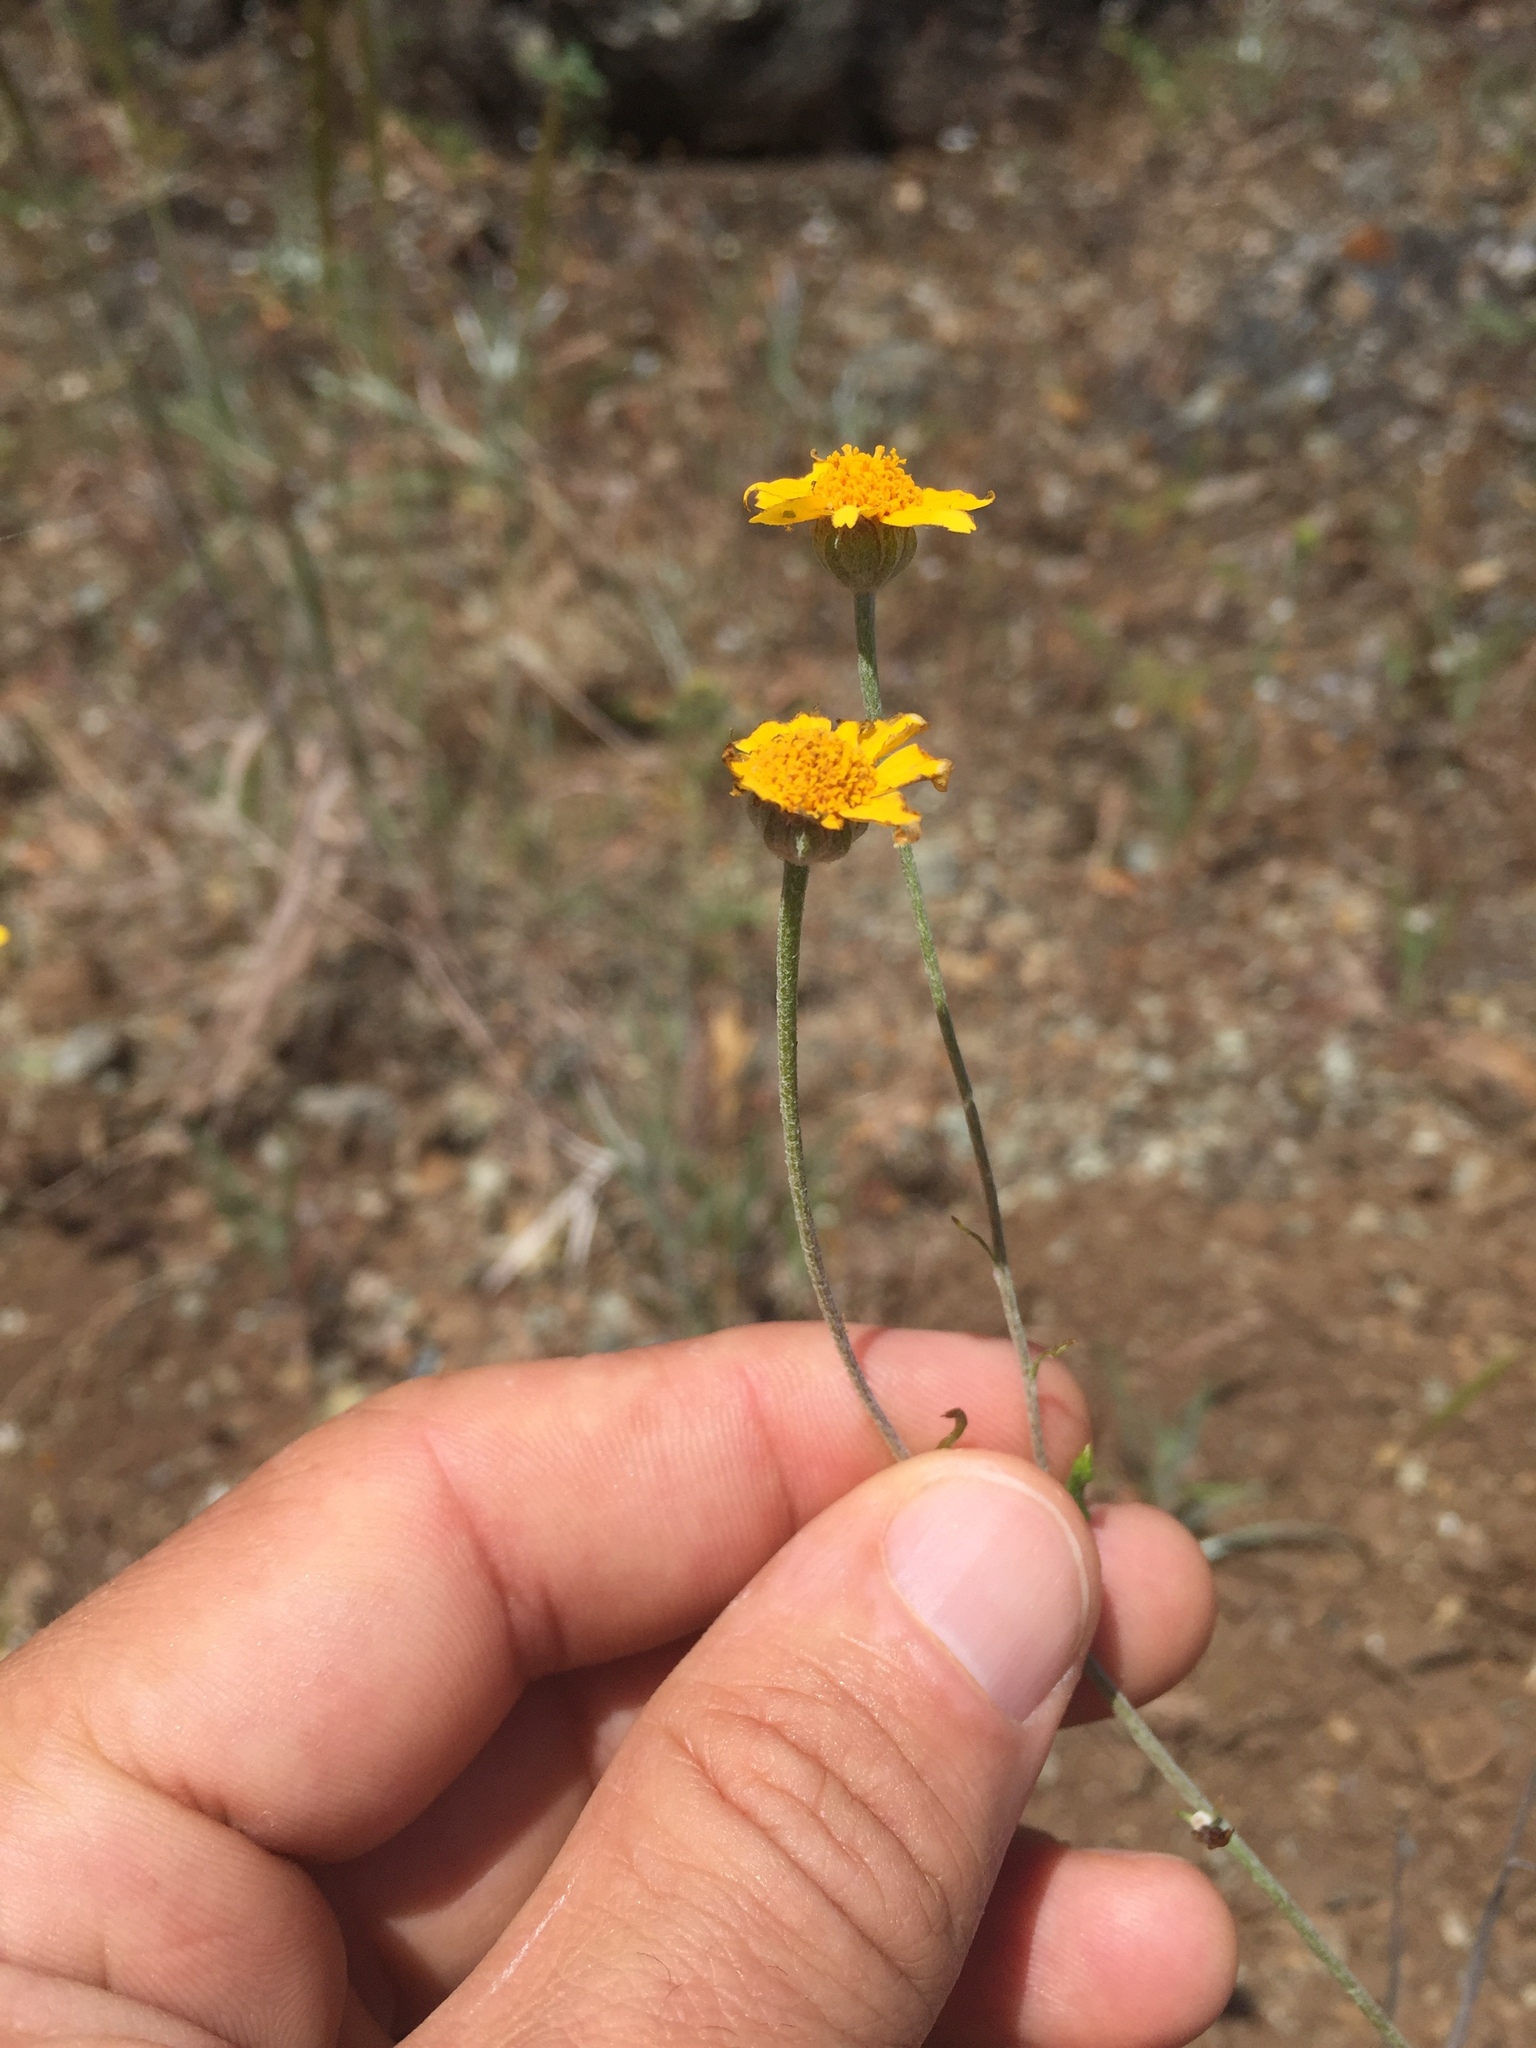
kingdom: Plantae
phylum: Tracheophyta
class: Magnoliopsida
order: Asterales
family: Asteraceae
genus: Eriophyllum
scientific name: Eriophyllum lanatum
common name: Common woolly-sunflower
